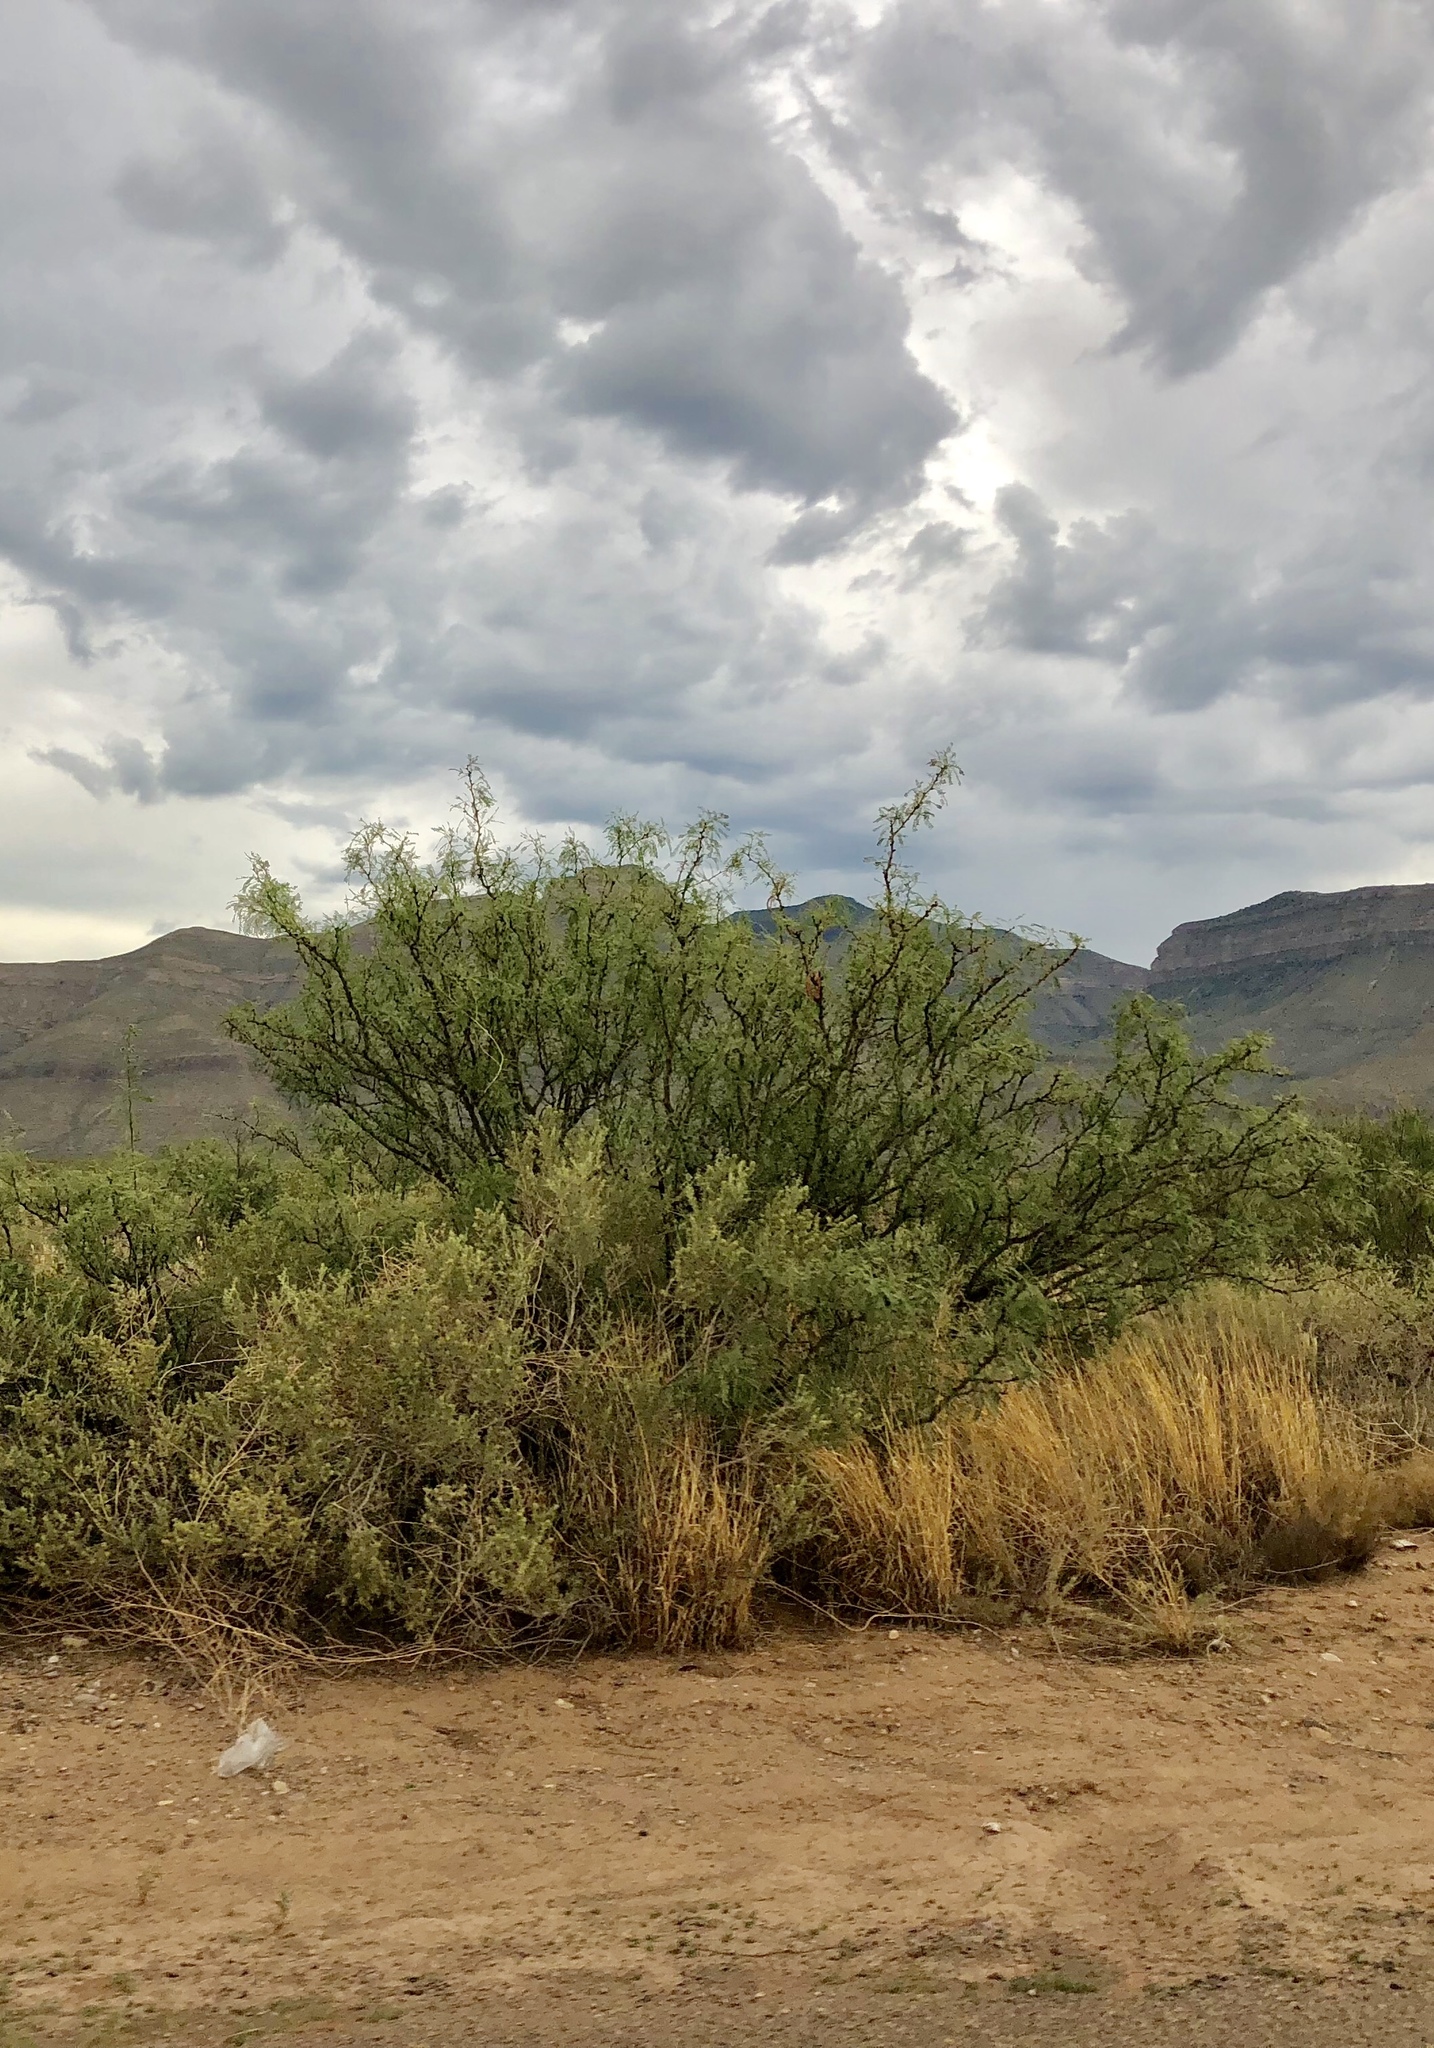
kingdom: Plantae
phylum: Tracheophyta
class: Magnoliopsida
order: Fabales
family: Fabaceae
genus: Prosopis
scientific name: Prosopis glandulosa
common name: Honey mesquite
